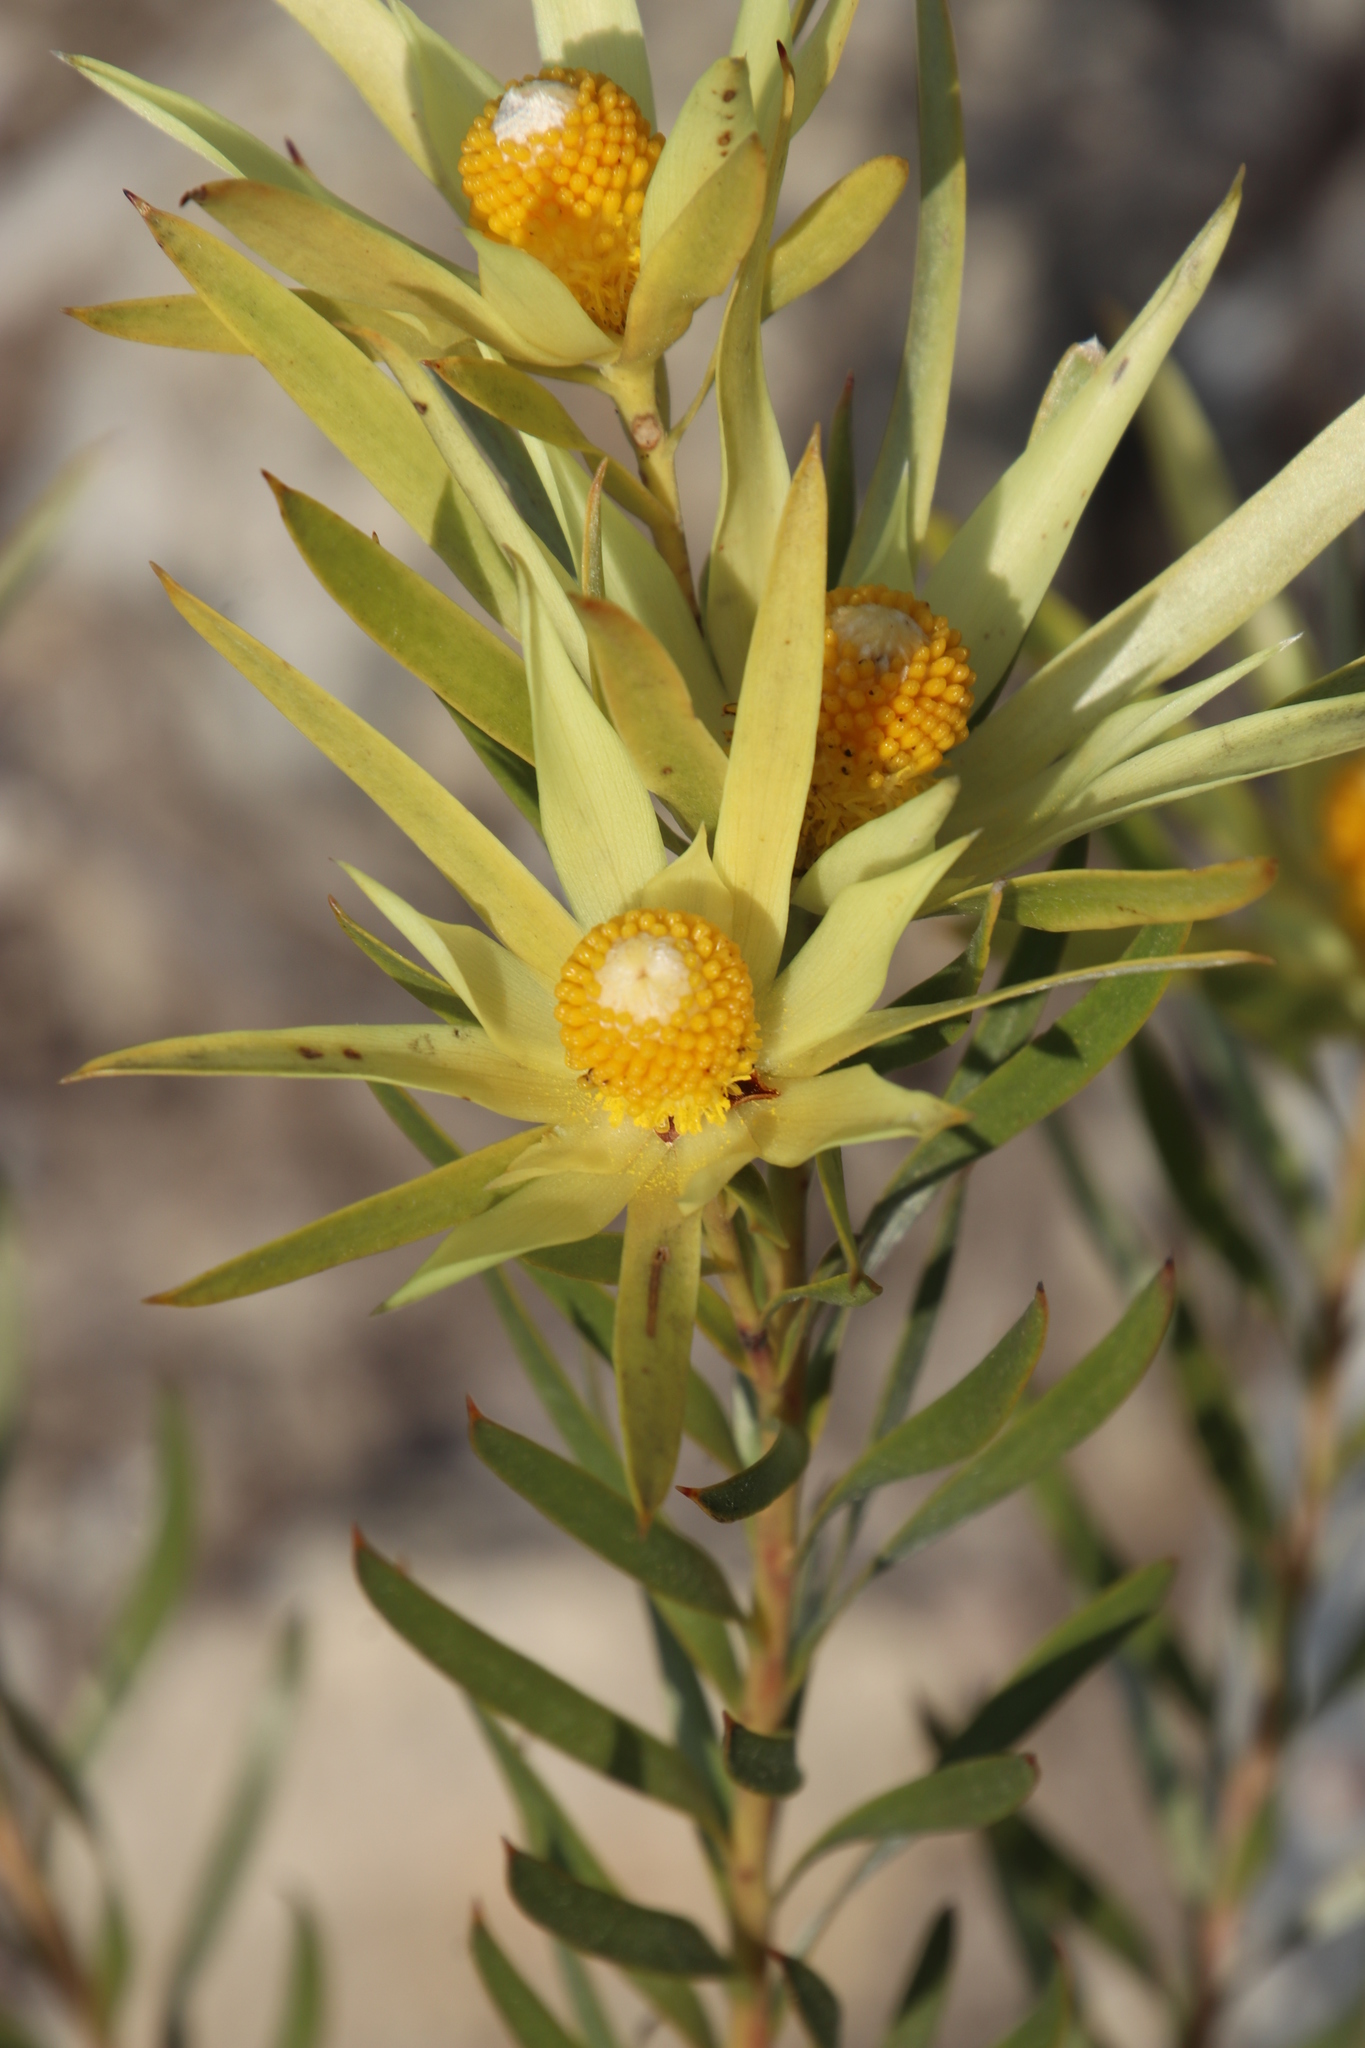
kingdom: Plantae
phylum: Tracheophyta
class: Magnoliopsida
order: Proteales
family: Proteaceae
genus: Leucadendron
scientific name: Leucadendron xanthoconus
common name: Sickle-leaf conebush
